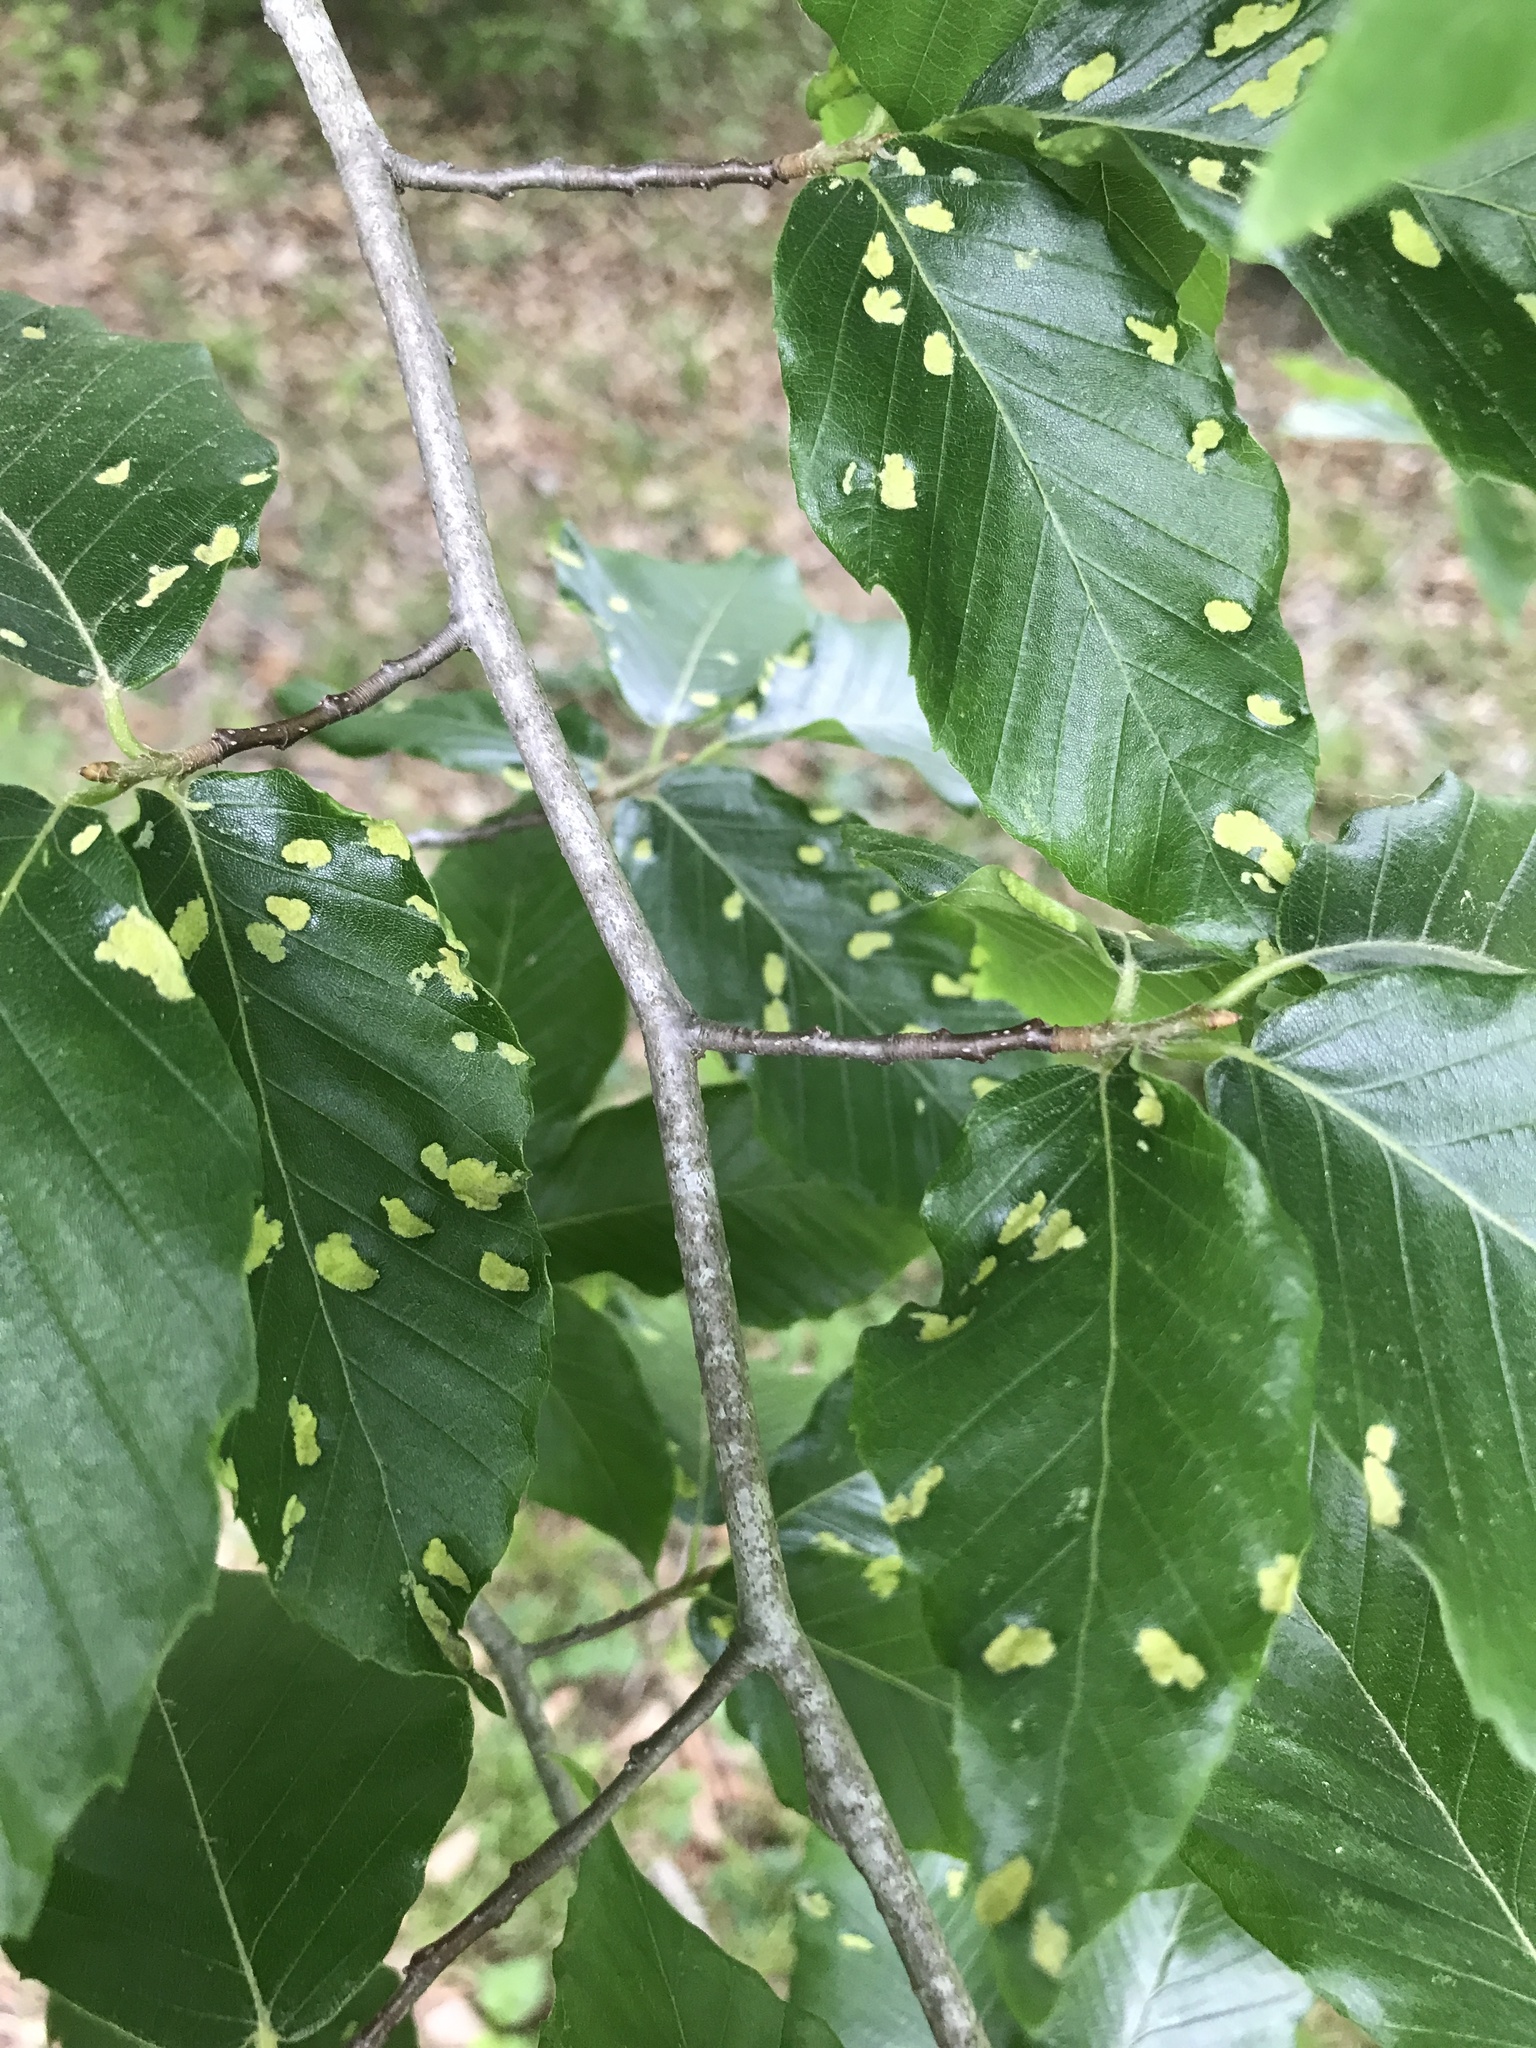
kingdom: Animalia
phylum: Arthropoda
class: Arachnida
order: Trombidiformes
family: Eriophyidae
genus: Acalitus
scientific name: Acalitus
